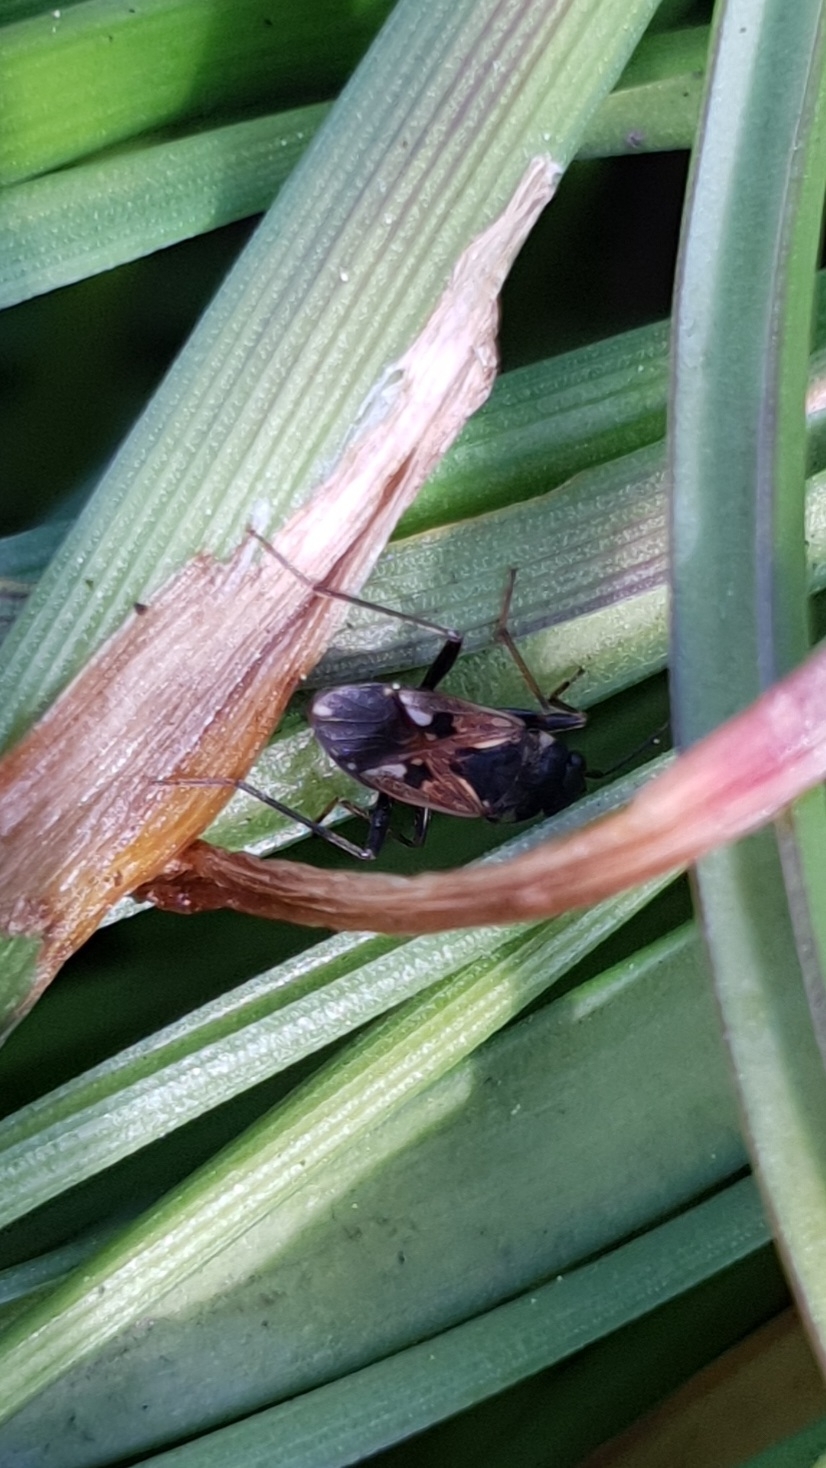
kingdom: Animalia
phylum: Arthropoda
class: Insecta
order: Hemiptera
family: Rhyparochromidae
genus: Rhyparochromus
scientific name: Rhyparochromus vulgaris
